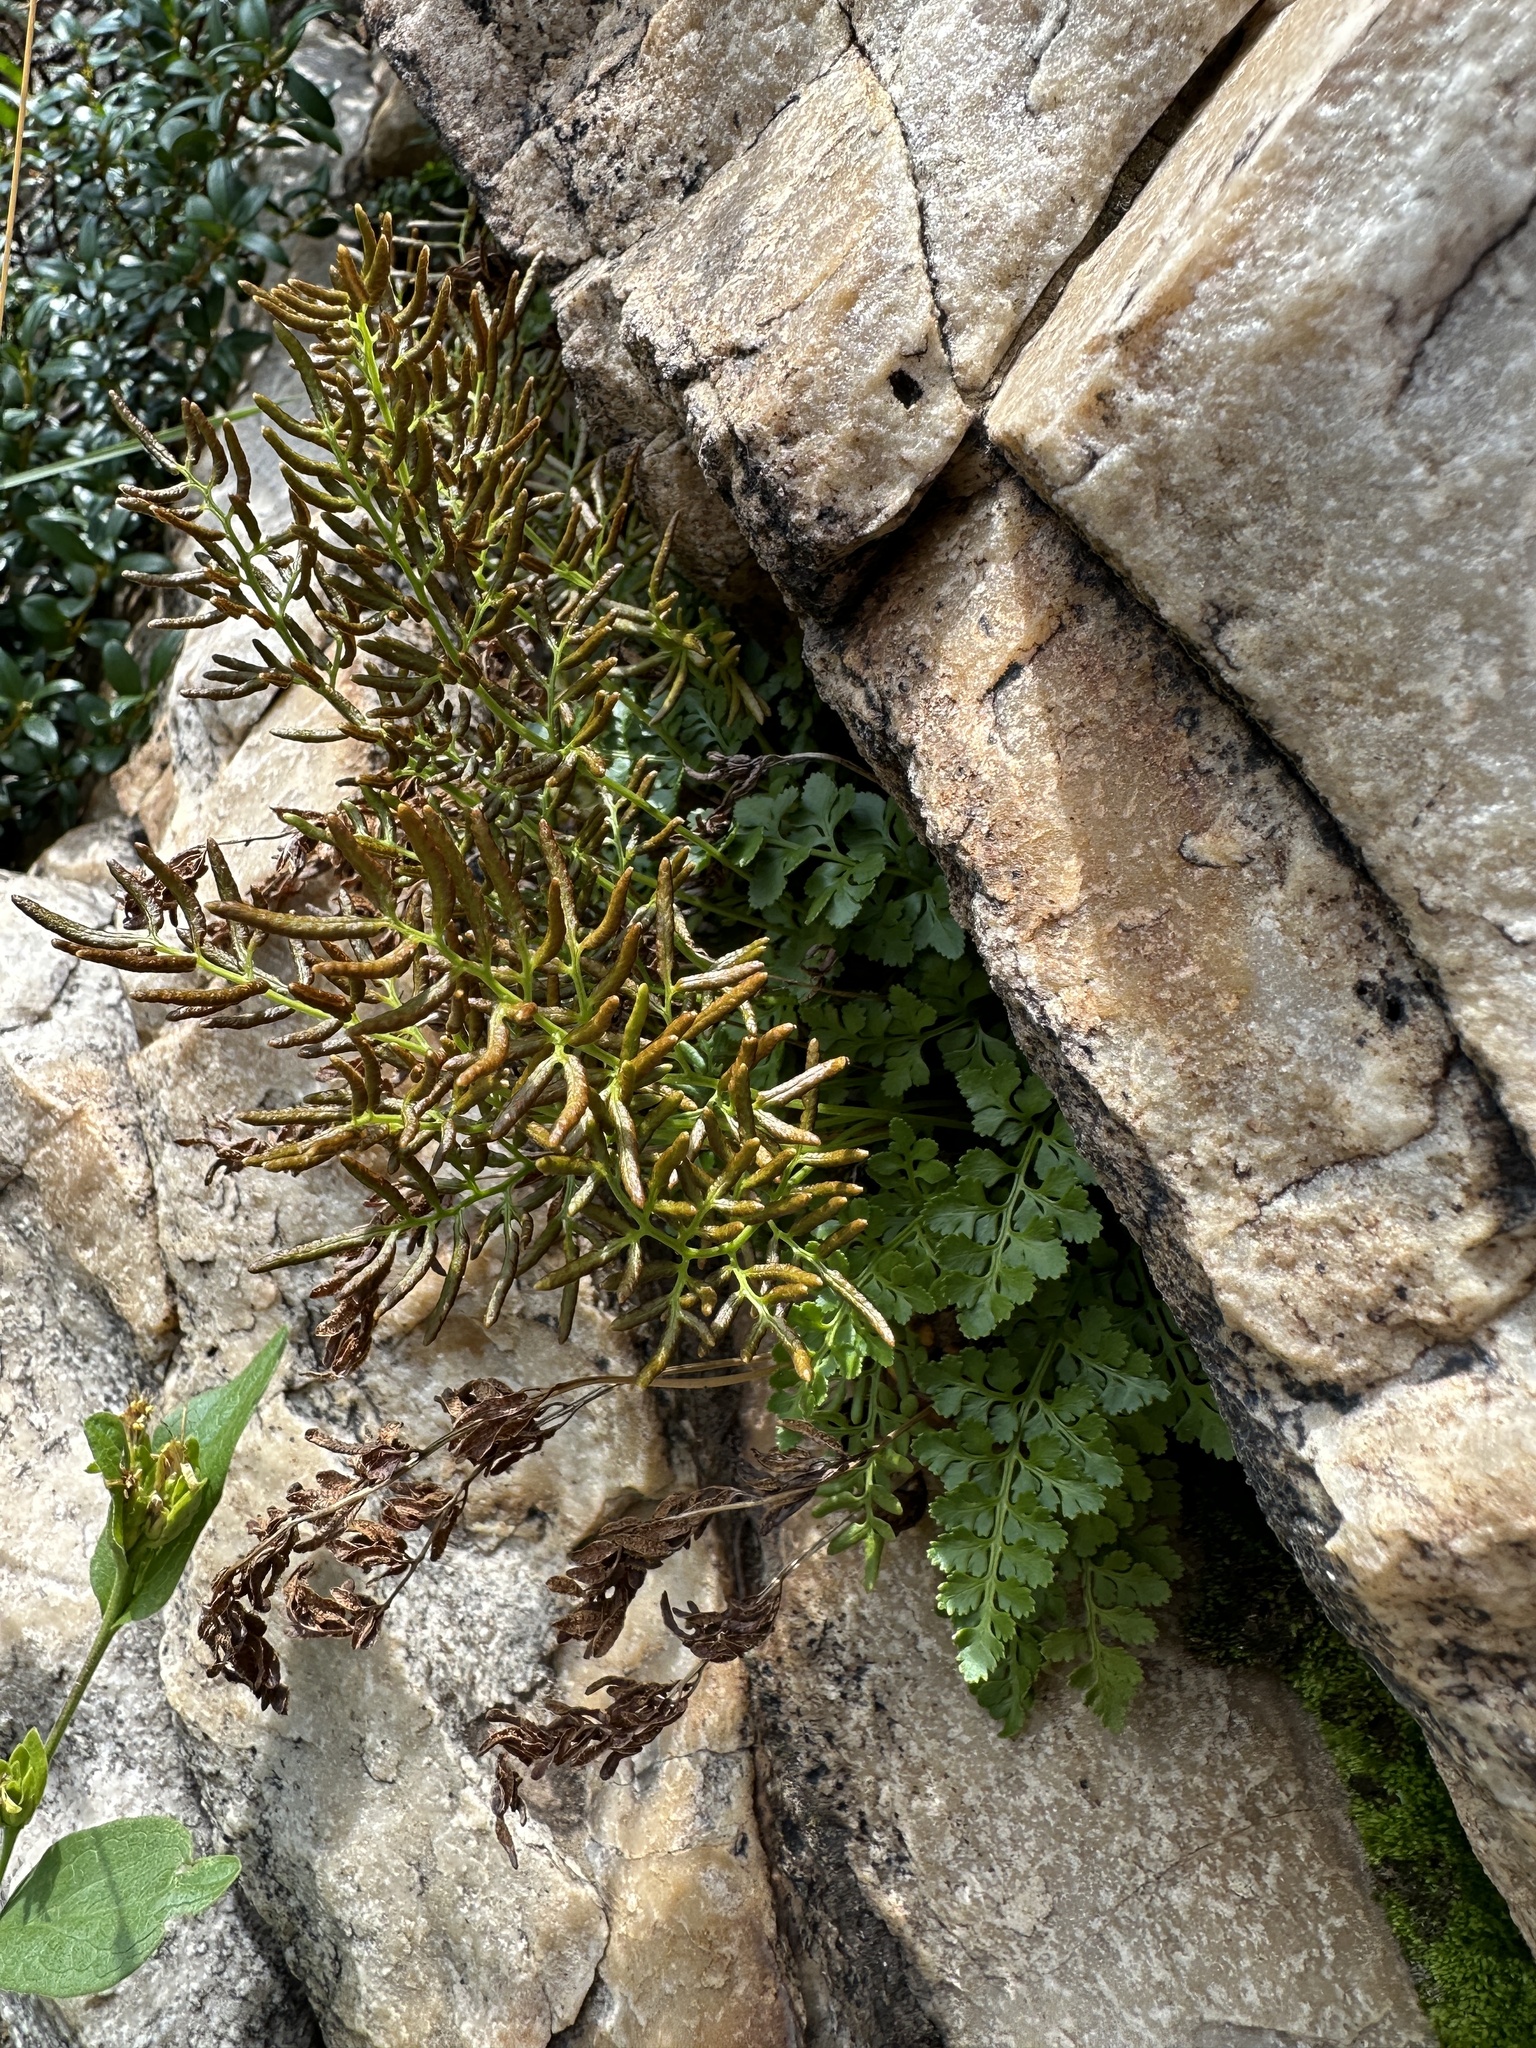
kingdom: Plantae
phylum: Tracheophyta
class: Polypodiopsida
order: Polypodiales
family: Pteridaceae
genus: Cryptogramma
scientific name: Cryptogramma acrostichoides
